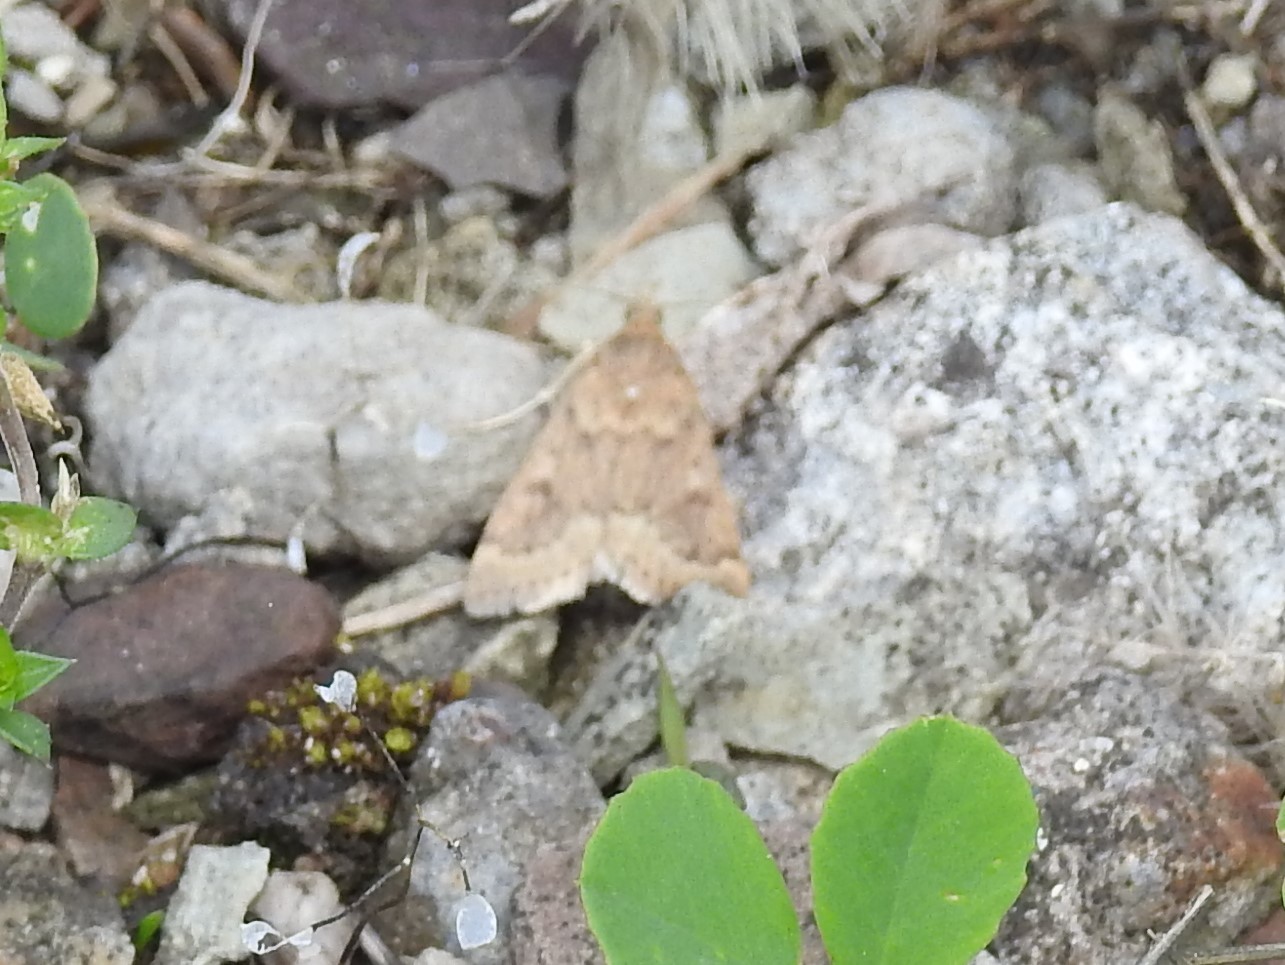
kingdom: Animalia
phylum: Arthropoda
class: Insecta
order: Lepidoptera
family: Crambidae
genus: Achyra
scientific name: Achyra rantalis
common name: Garden webworm
